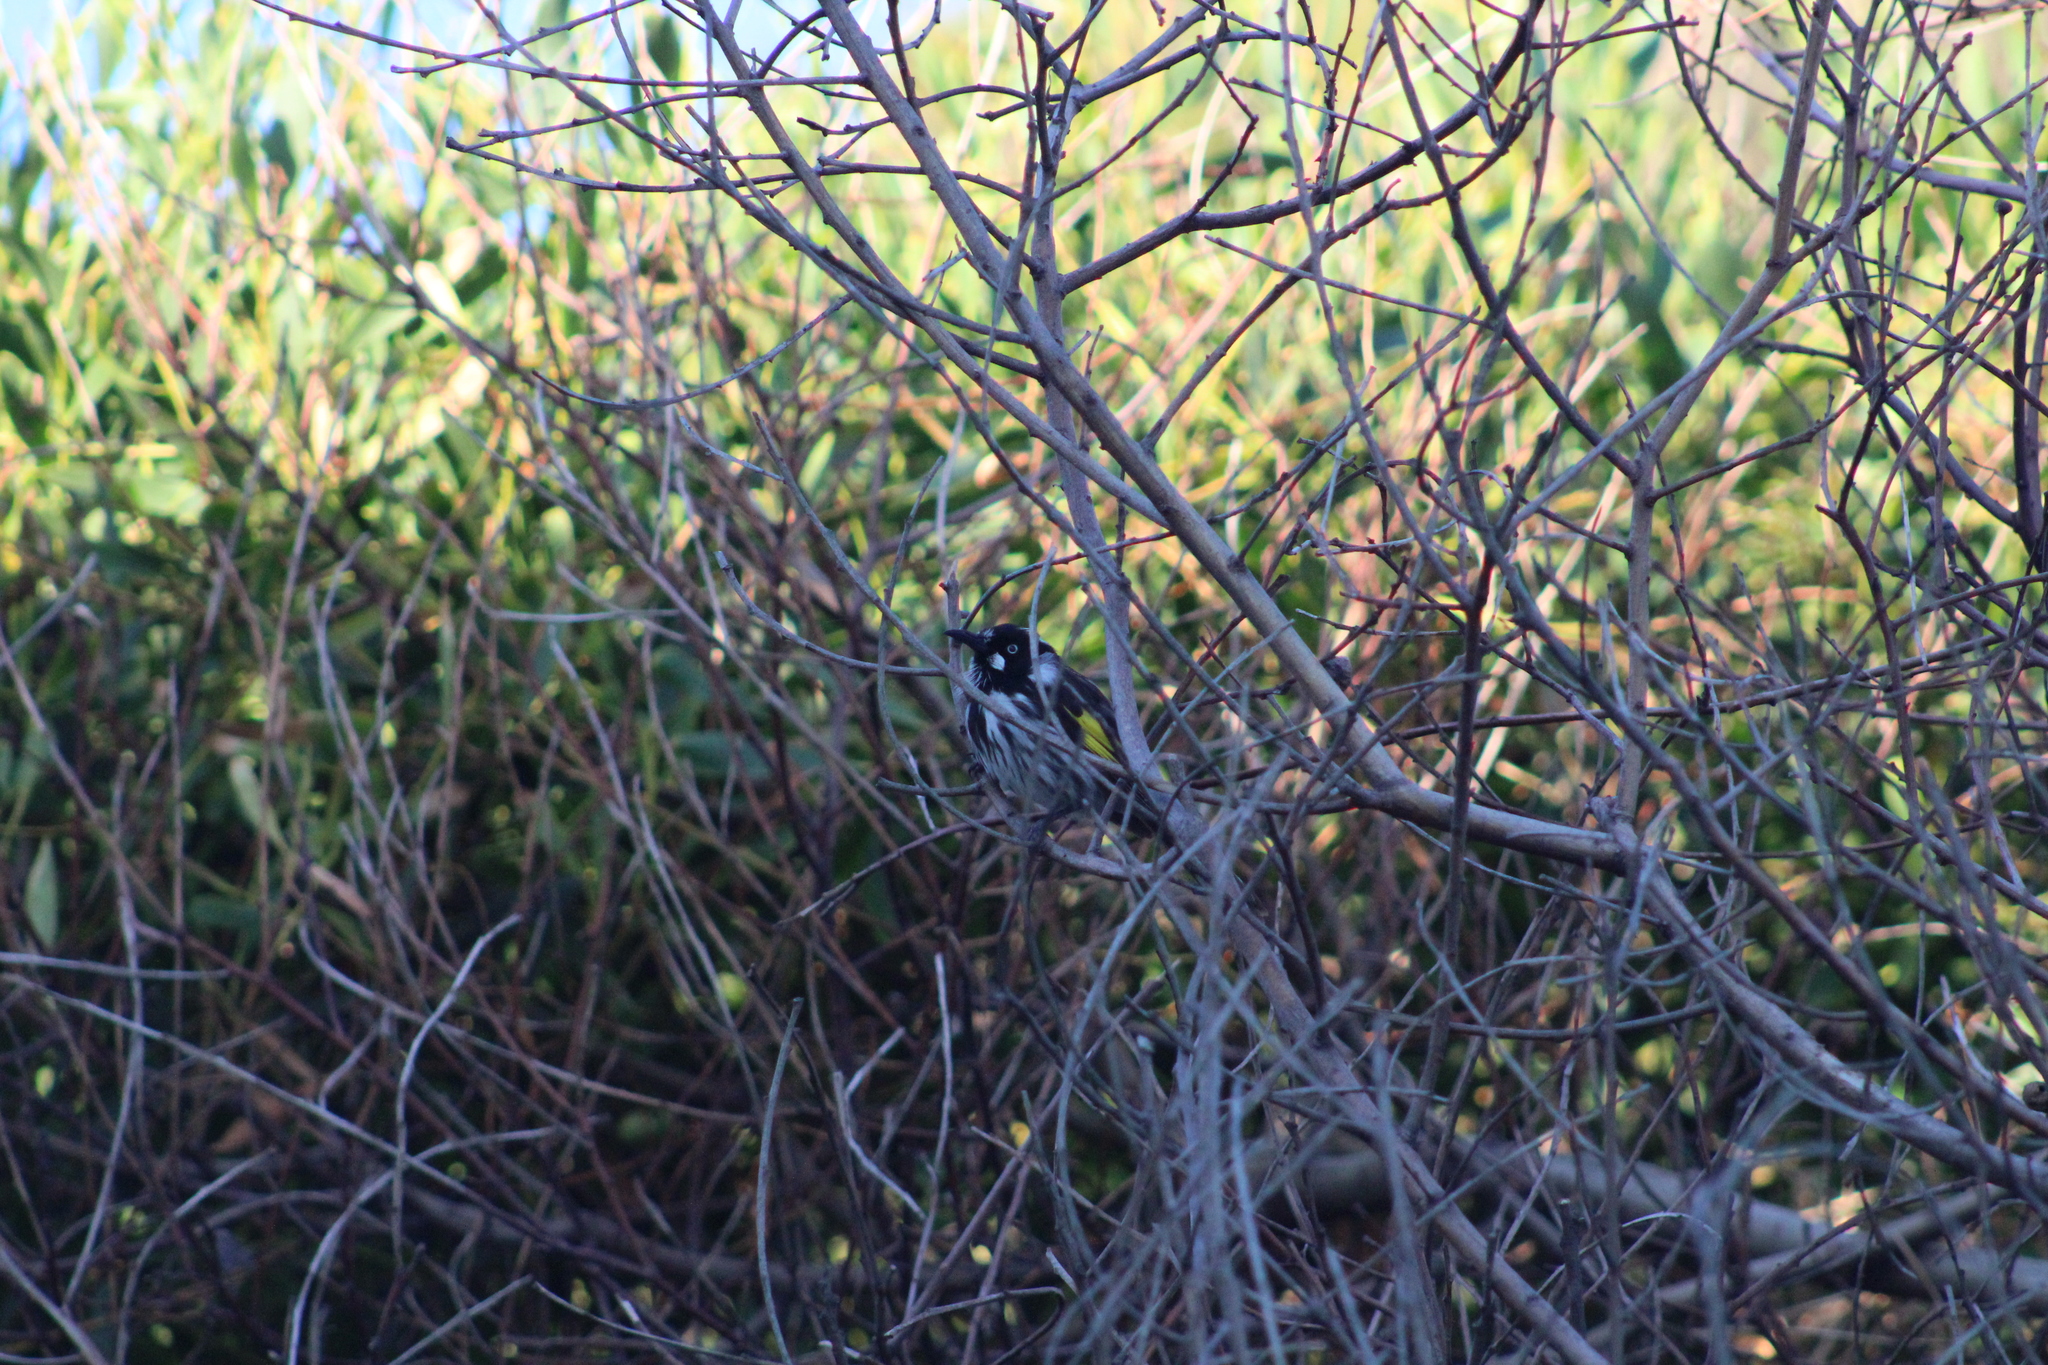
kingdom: Animalia
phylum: Chordata
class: Aves
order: Passeriformes
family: Meliphagidae
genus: Phylidonyris
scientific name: Phylidonyris novaehollandiae
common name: New holland honeyeater
